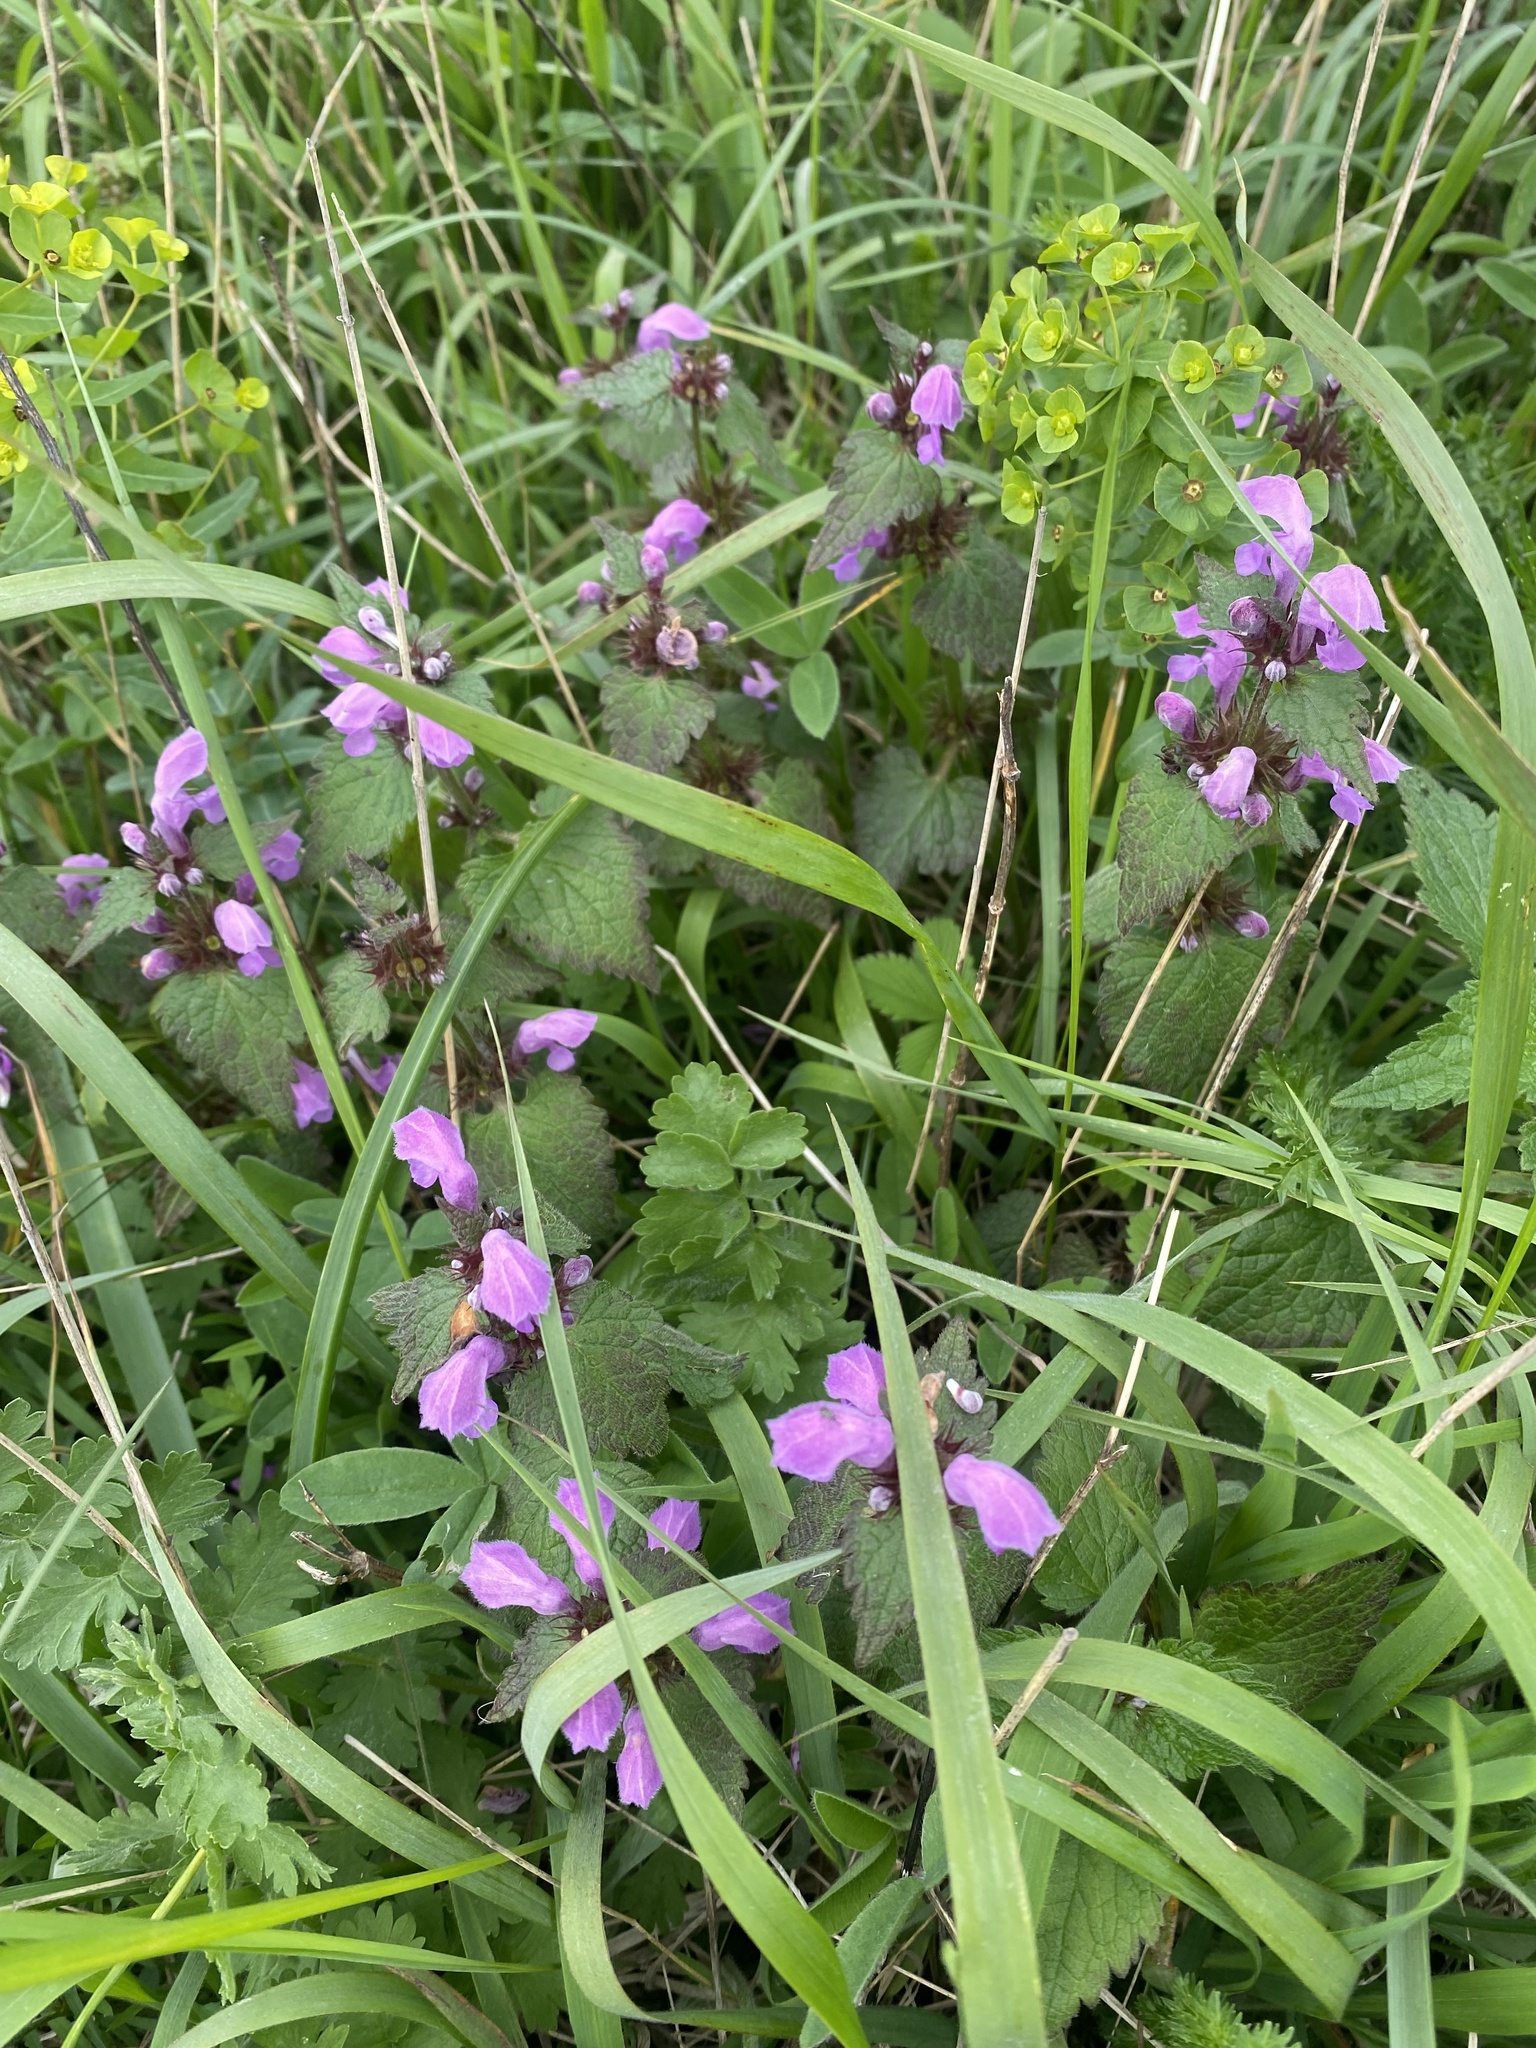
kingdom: Plantae
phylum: Tracheophyta
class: Magnoliopsida
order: Lamiales
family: Lamiaceae
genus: Lamium
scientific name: Lamium maculatum
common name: Spotted dead-nettle
